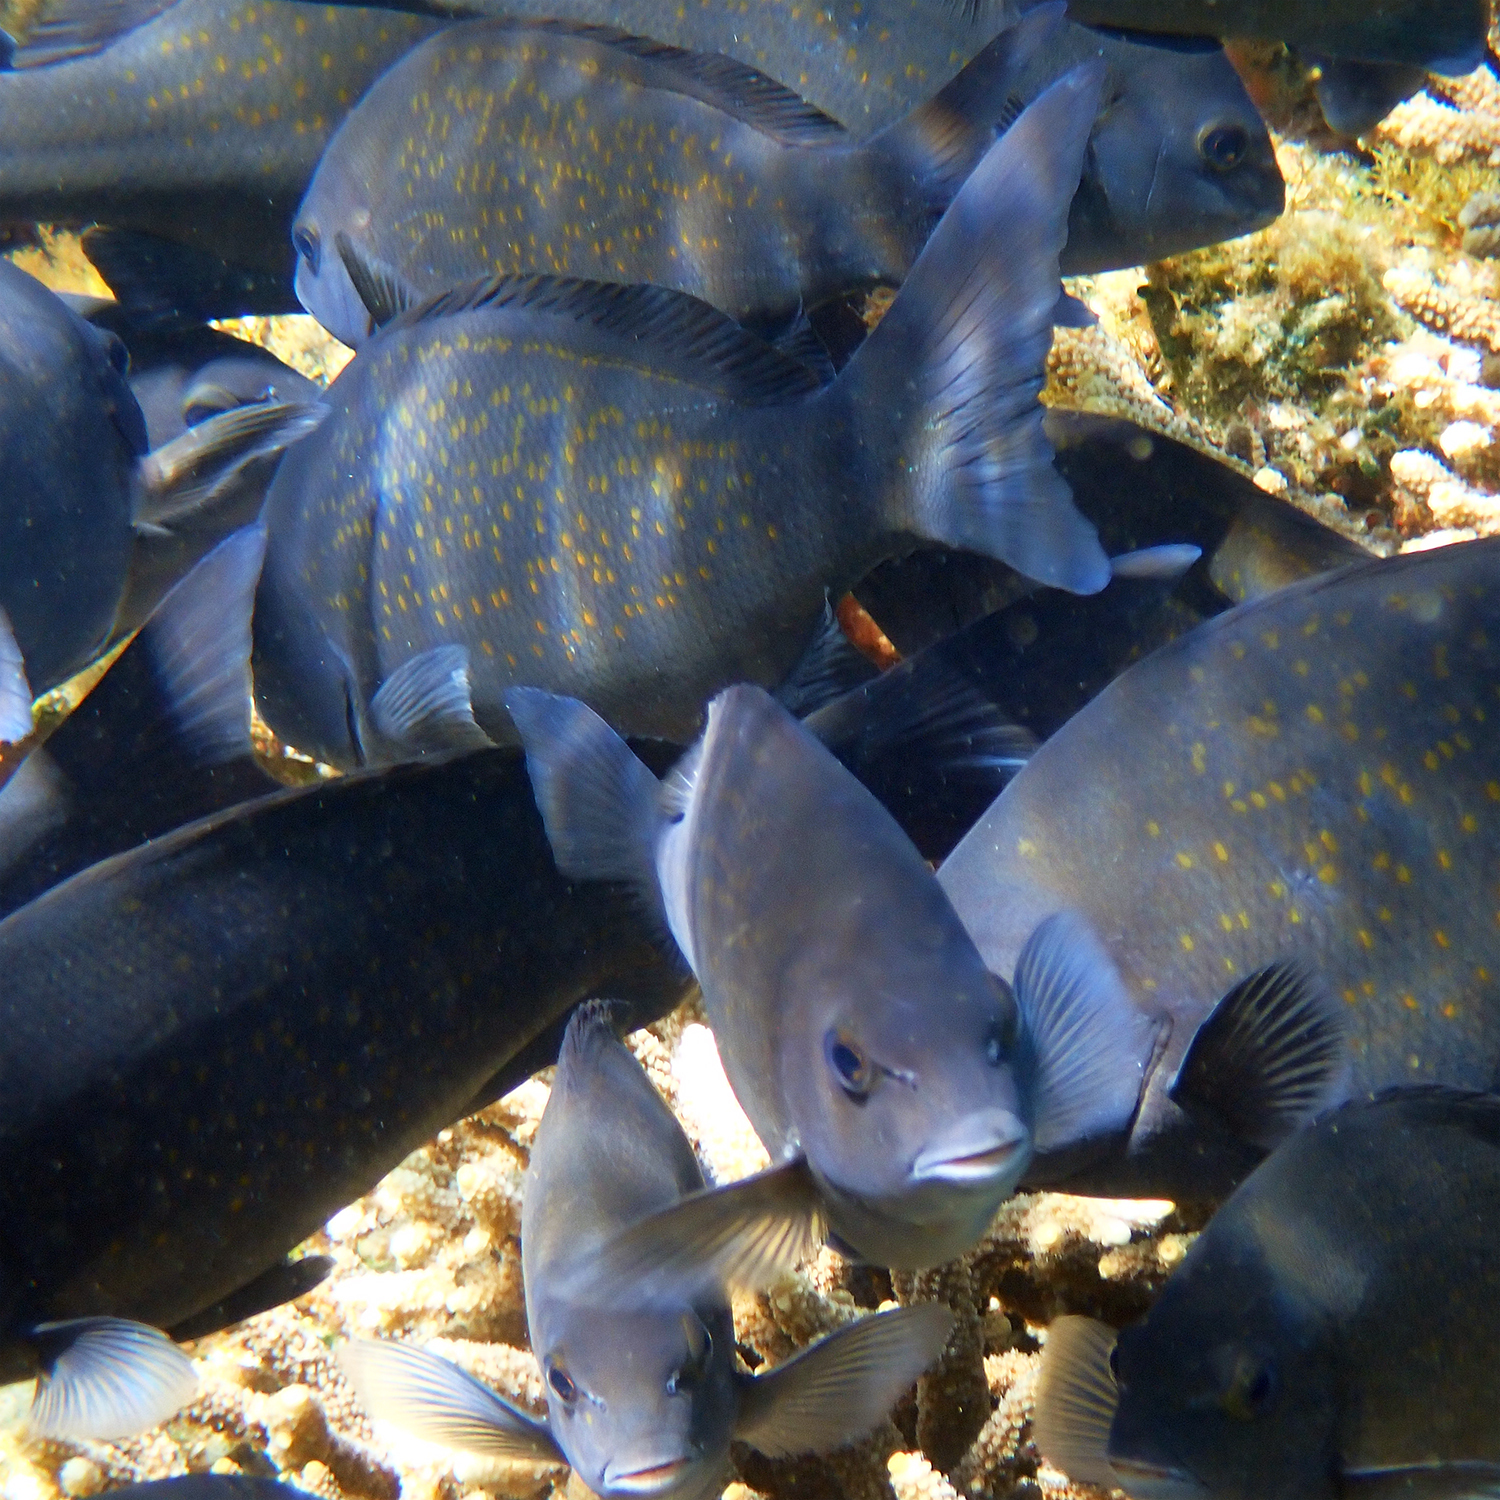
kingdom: Animalia
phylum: Chordata
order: Perciformes
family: Kyphosidae
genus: Girella
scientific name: Girella cyanea
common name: Bluefish
